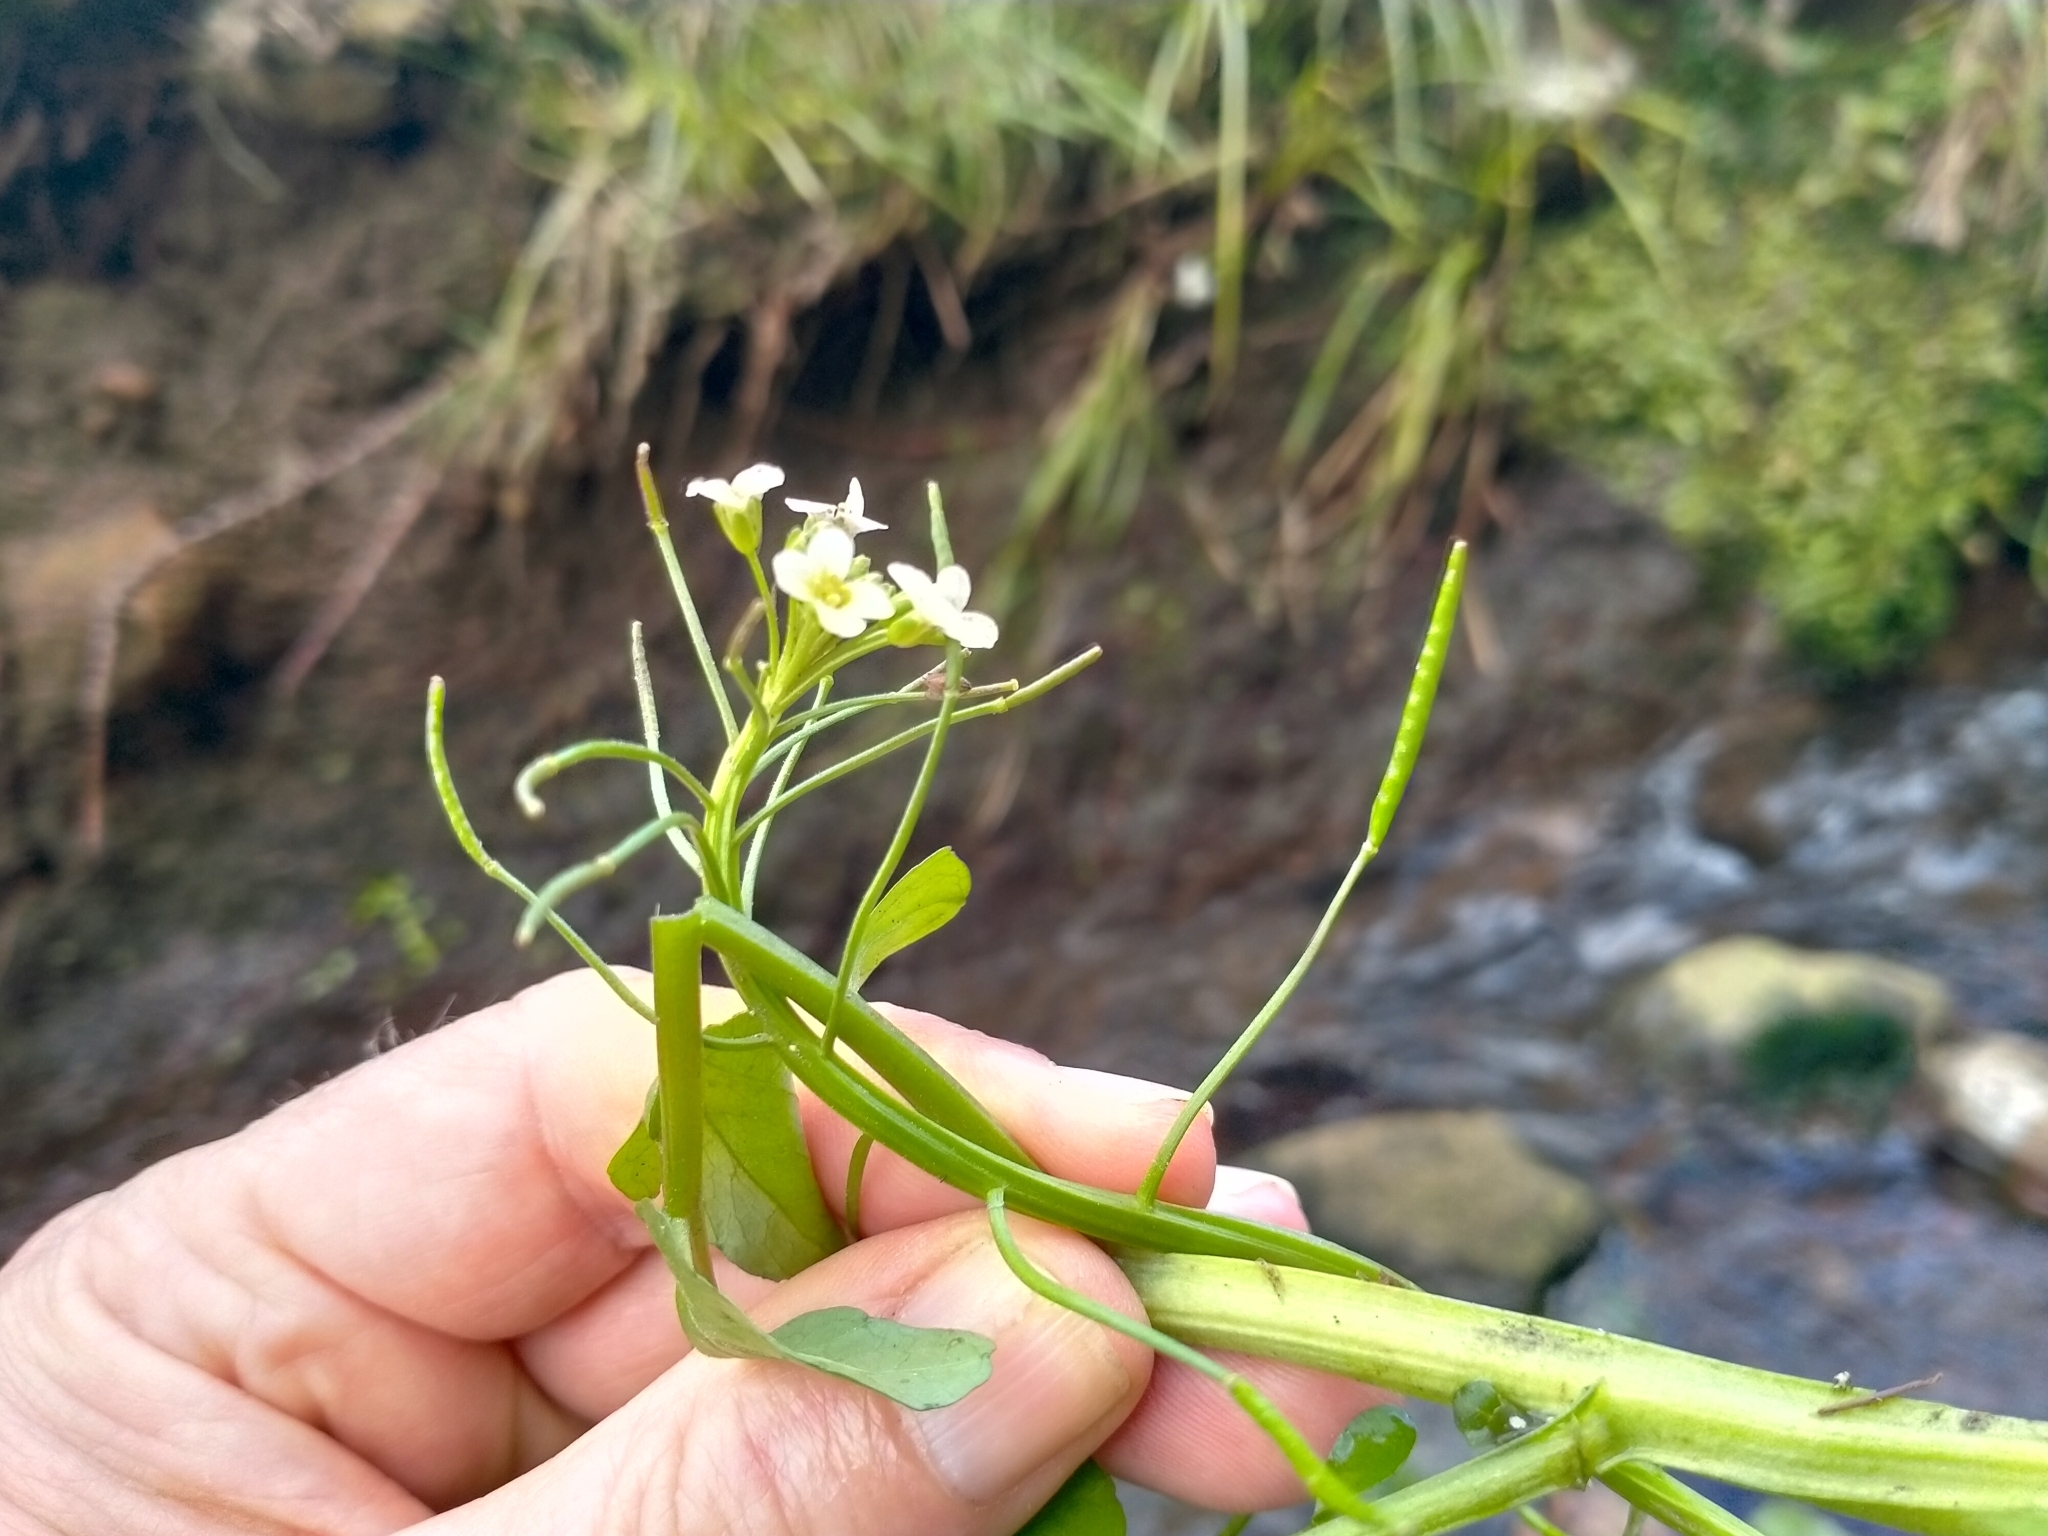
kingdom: Plantae
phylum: Tracheophyta
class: Magnoliopsida
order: Brassicales
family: Brassicaceae
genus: Nasturtium
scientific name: Nasturtium microphyllum
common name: Onerow yellowcress
